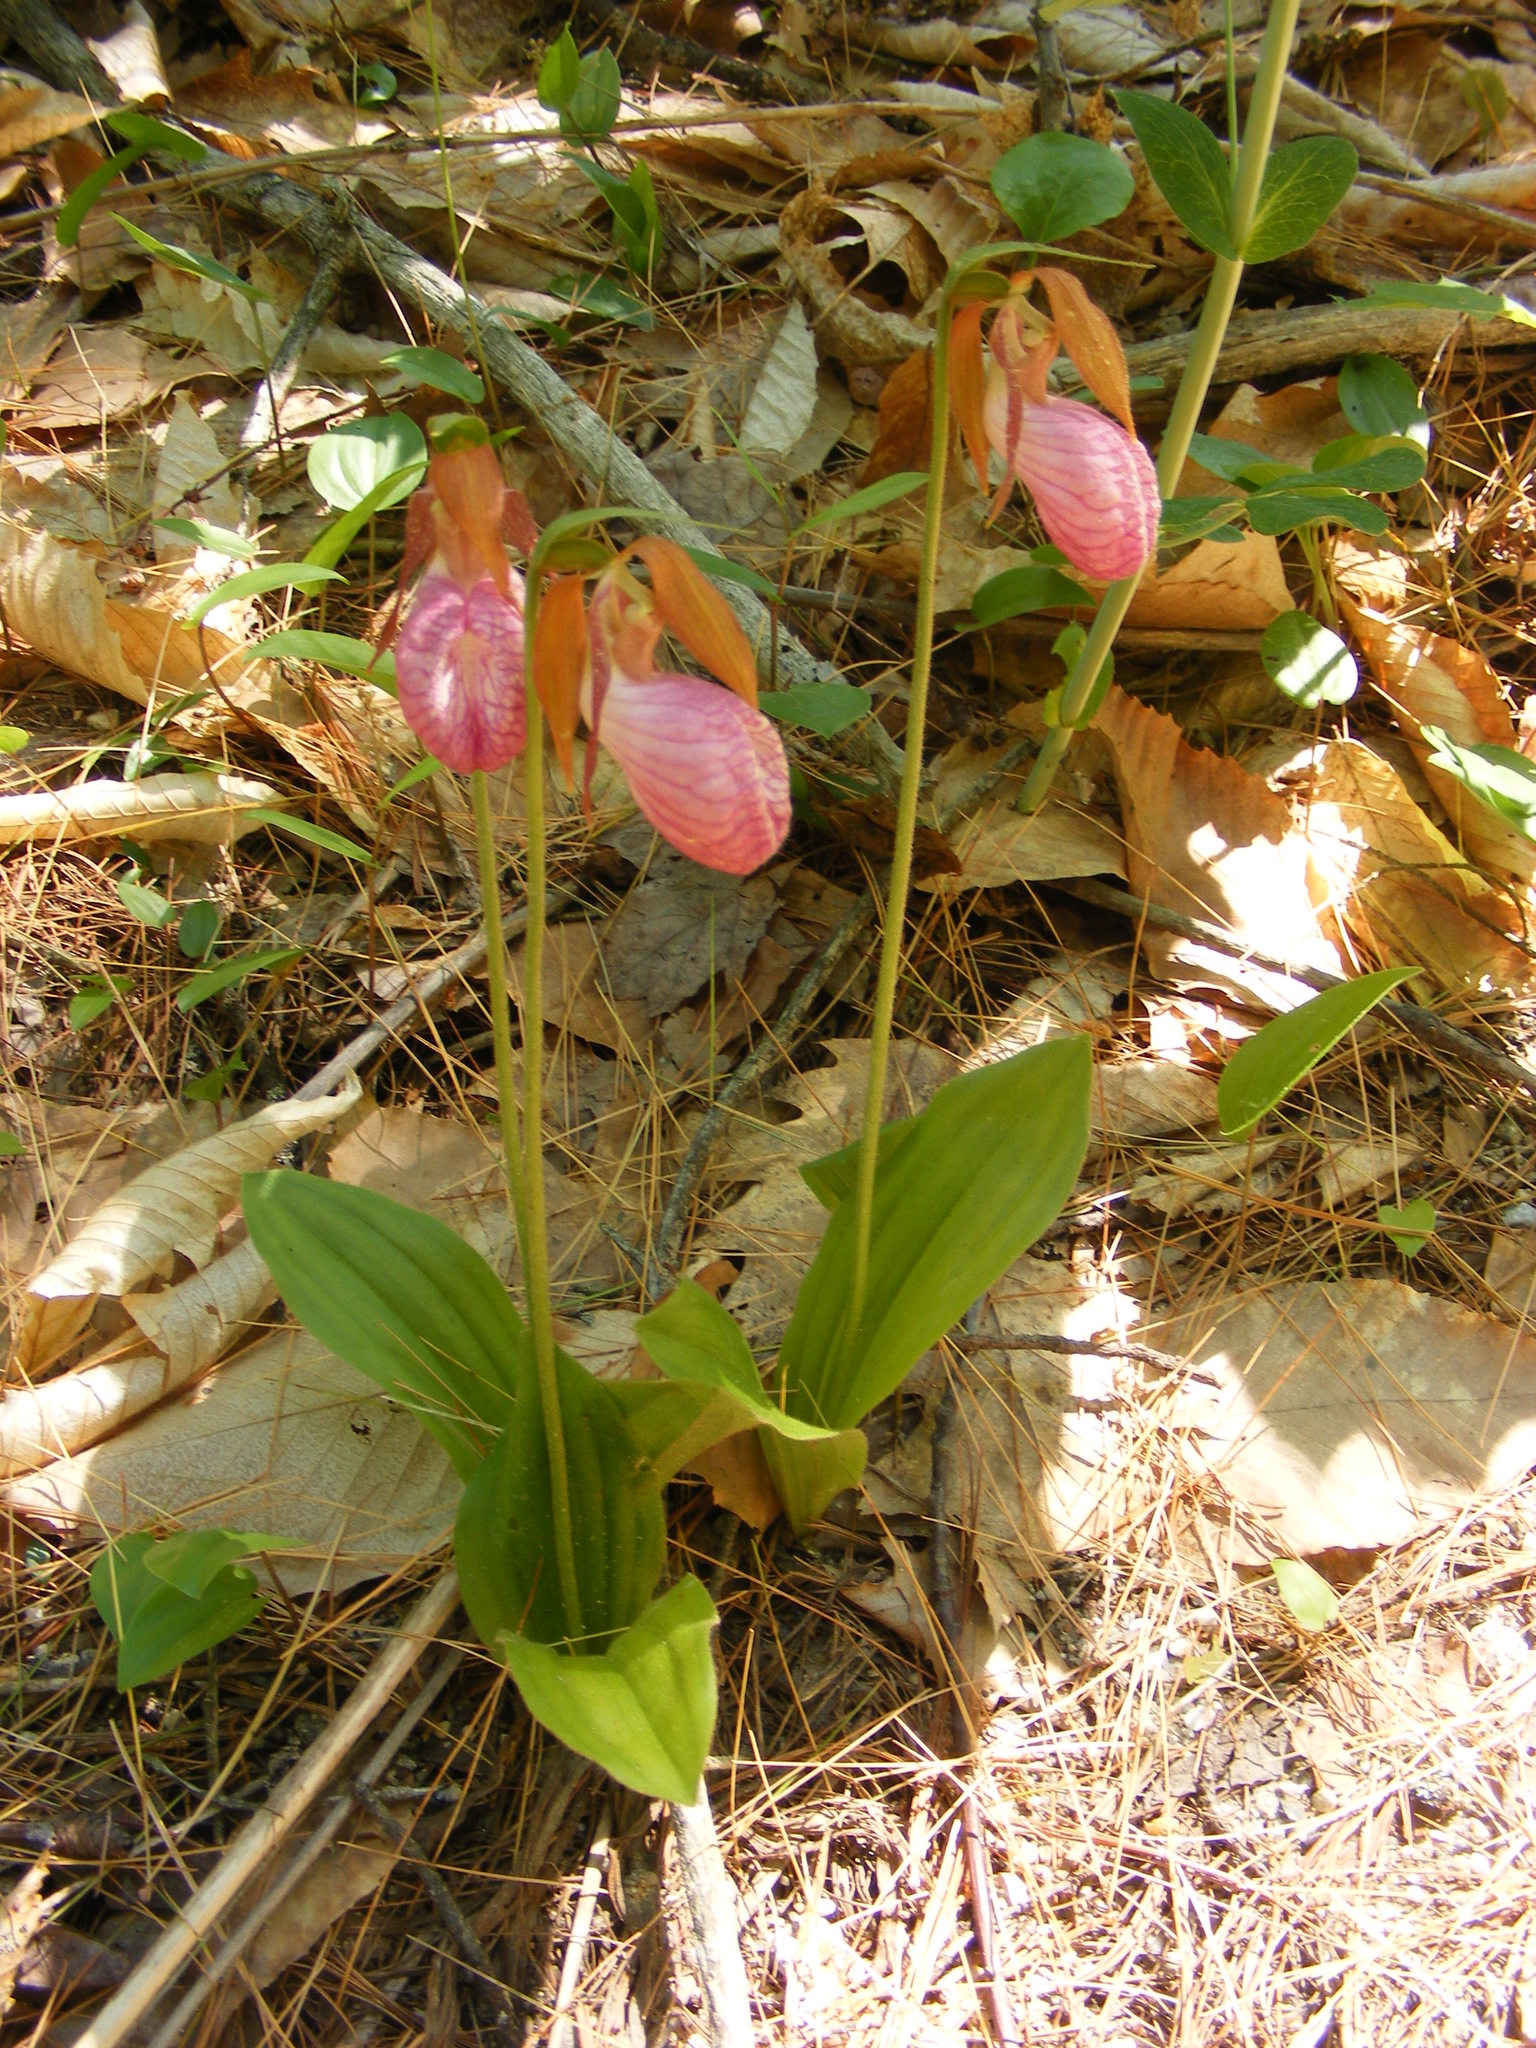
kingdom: Plantae
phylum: Tracheophyta
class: Liliopsida
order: Asparagales
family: Orchidaceae
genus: Cypripedium
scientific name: Cypripedium acaule
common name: Pink lady's-slipper
